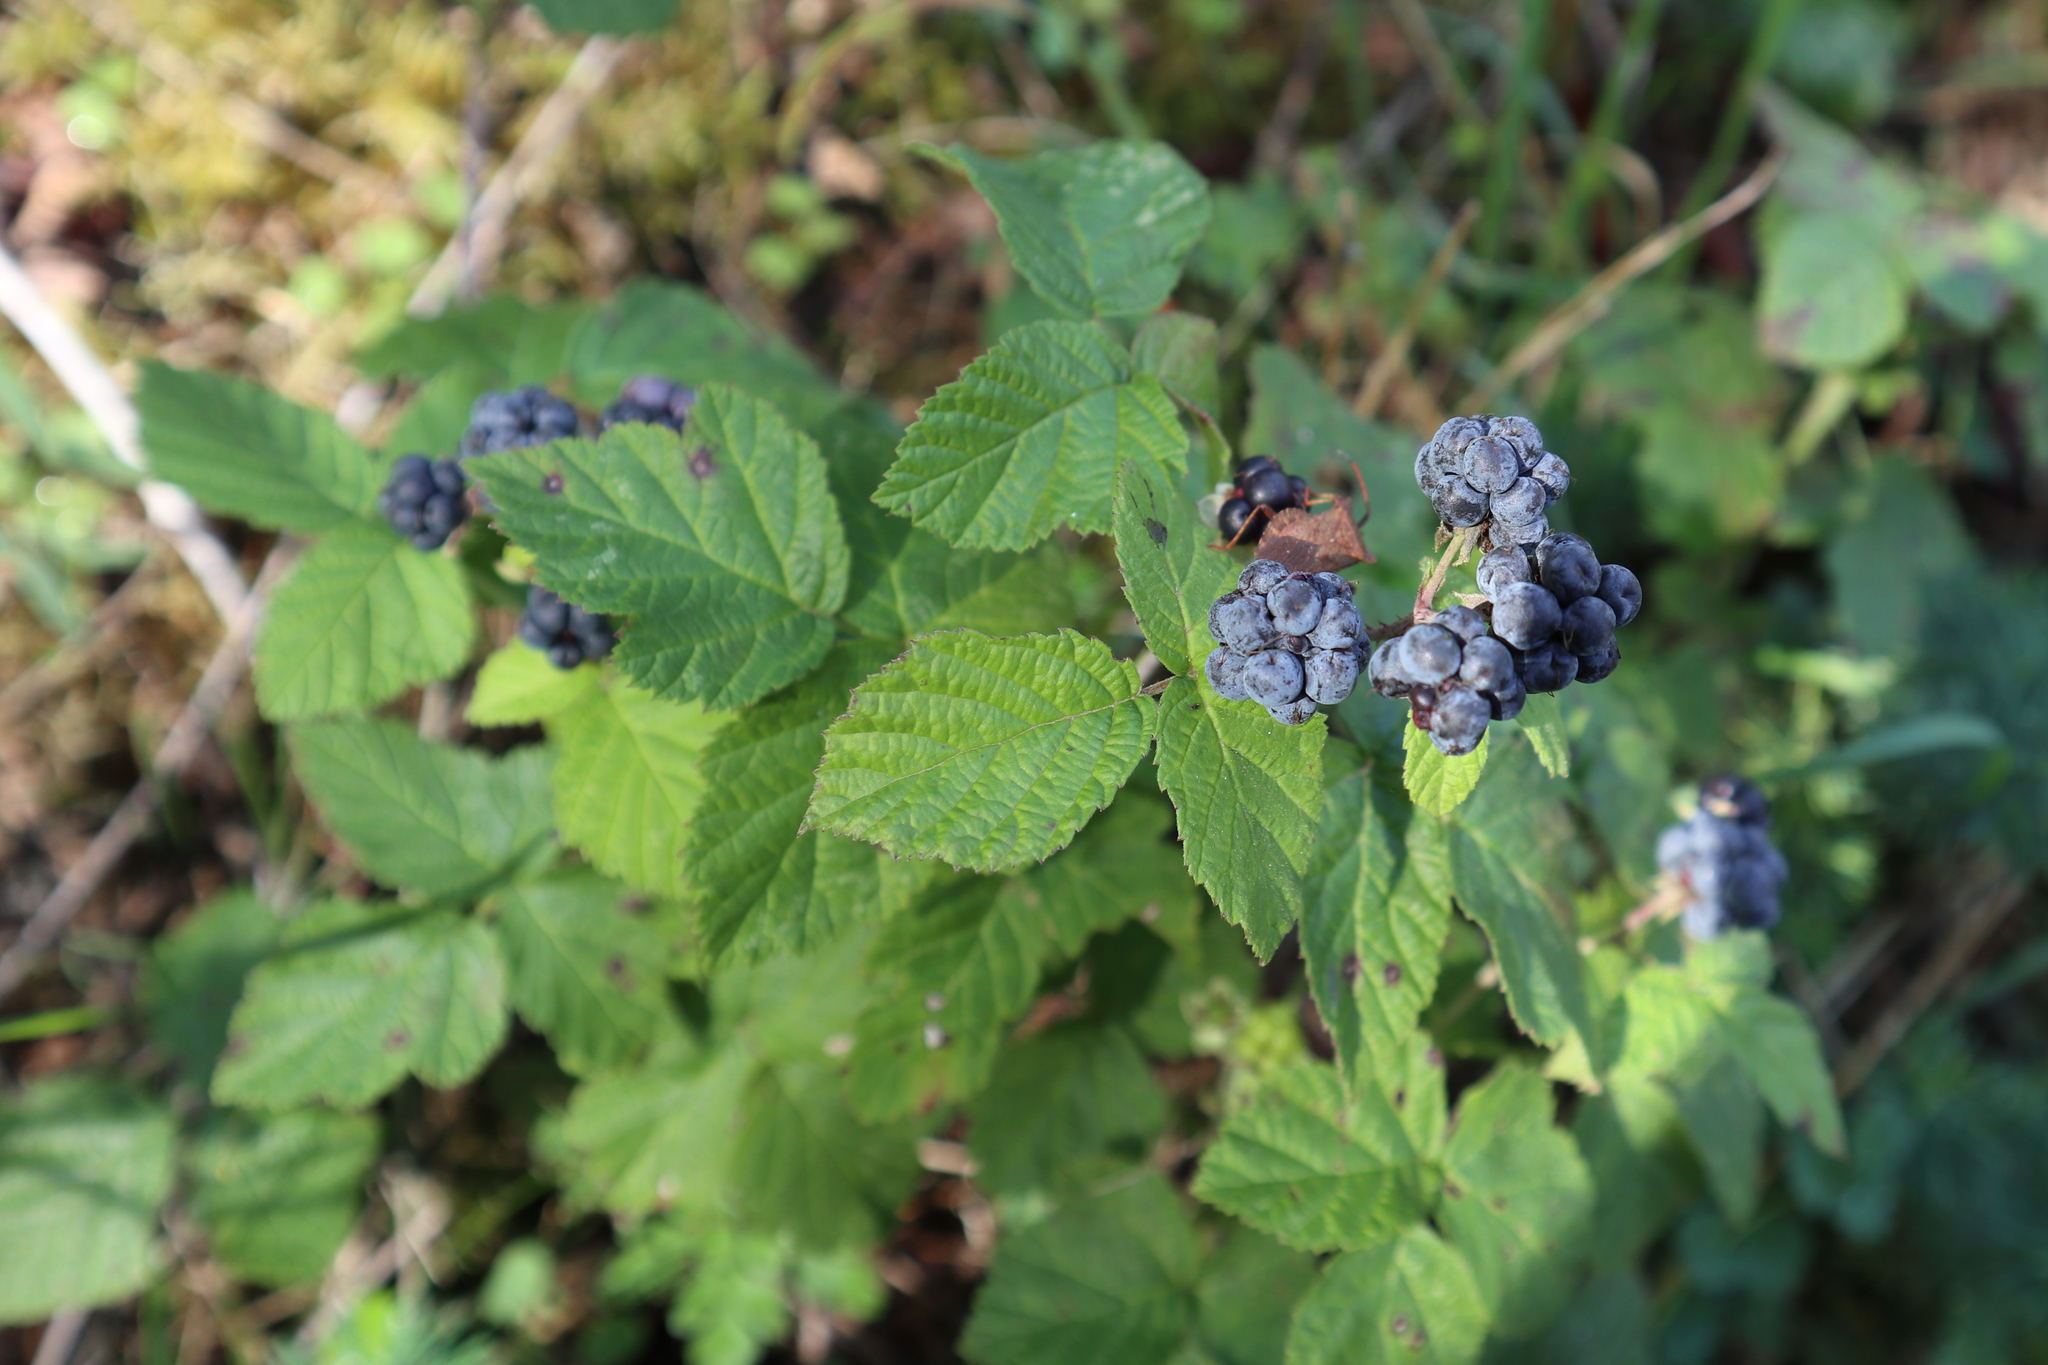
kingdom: Plantae
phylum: Tracheophyta
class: Magnoliopsida
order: Rosales
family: Rosaceae
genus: Rubus
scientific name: Rubus caesius
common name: Dewberry
